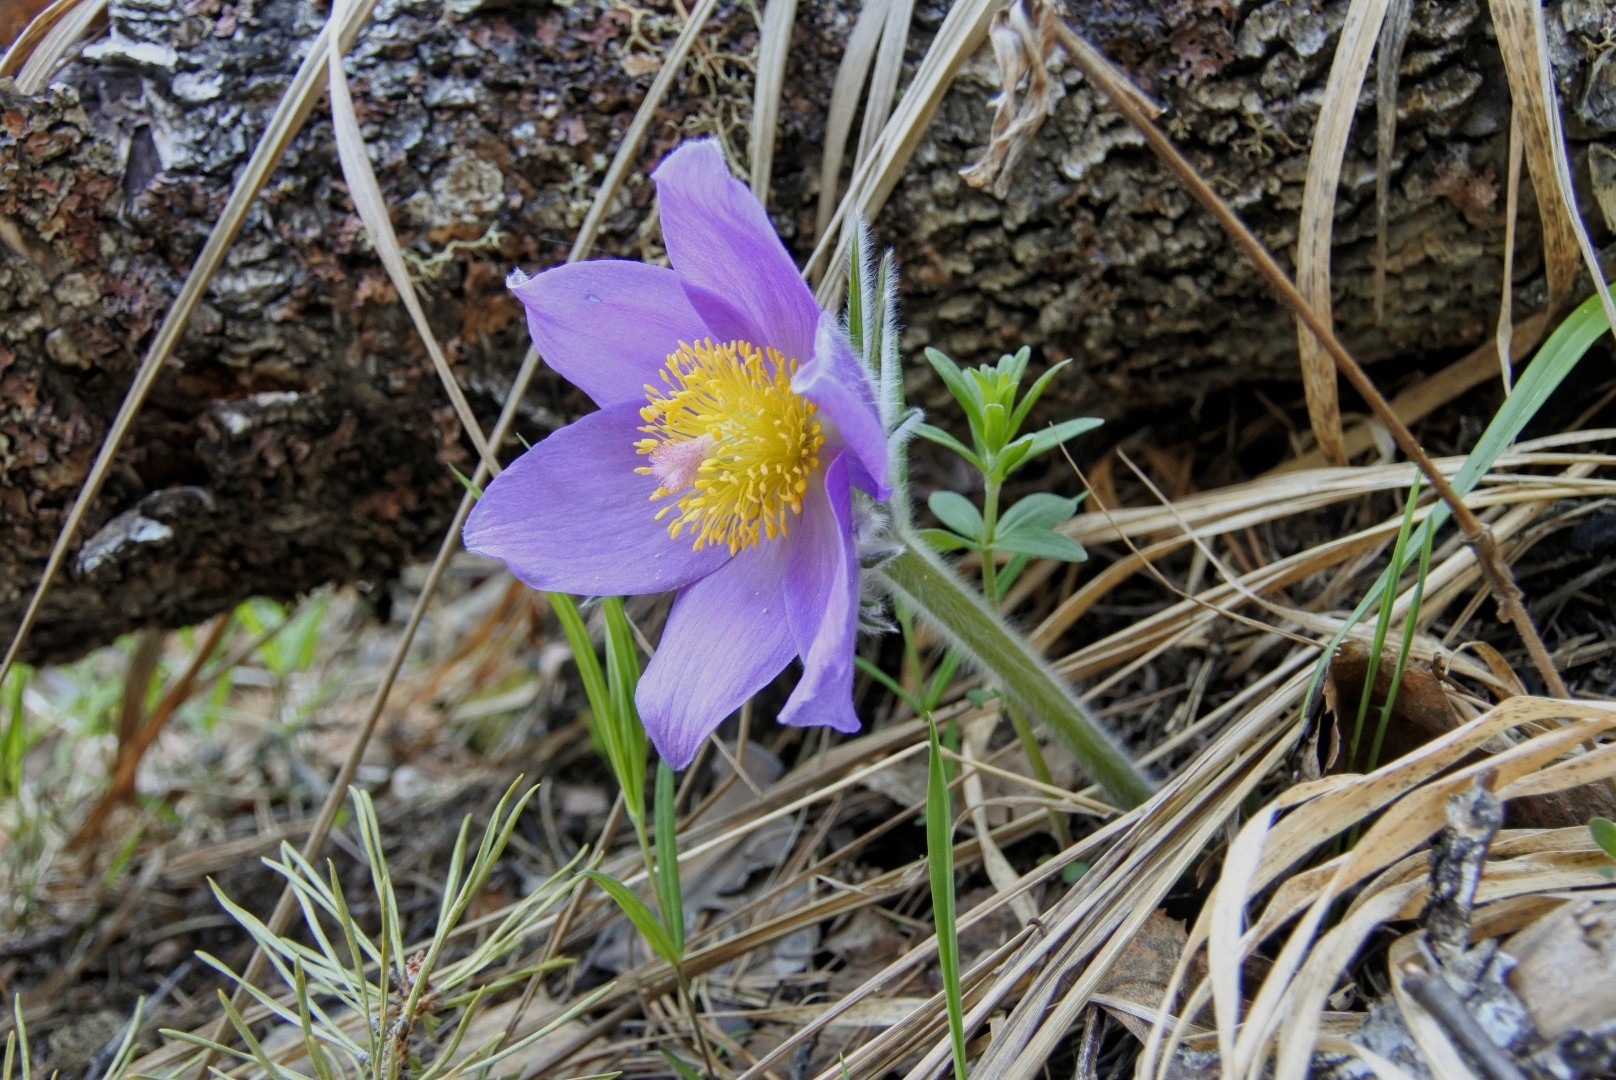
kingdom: Plantae
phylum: Tracheophyta
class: Magnoliopsida
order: Ranunculales
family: Ranunculaceae
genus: Pulsatilla
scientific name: Pulsatilla patens
